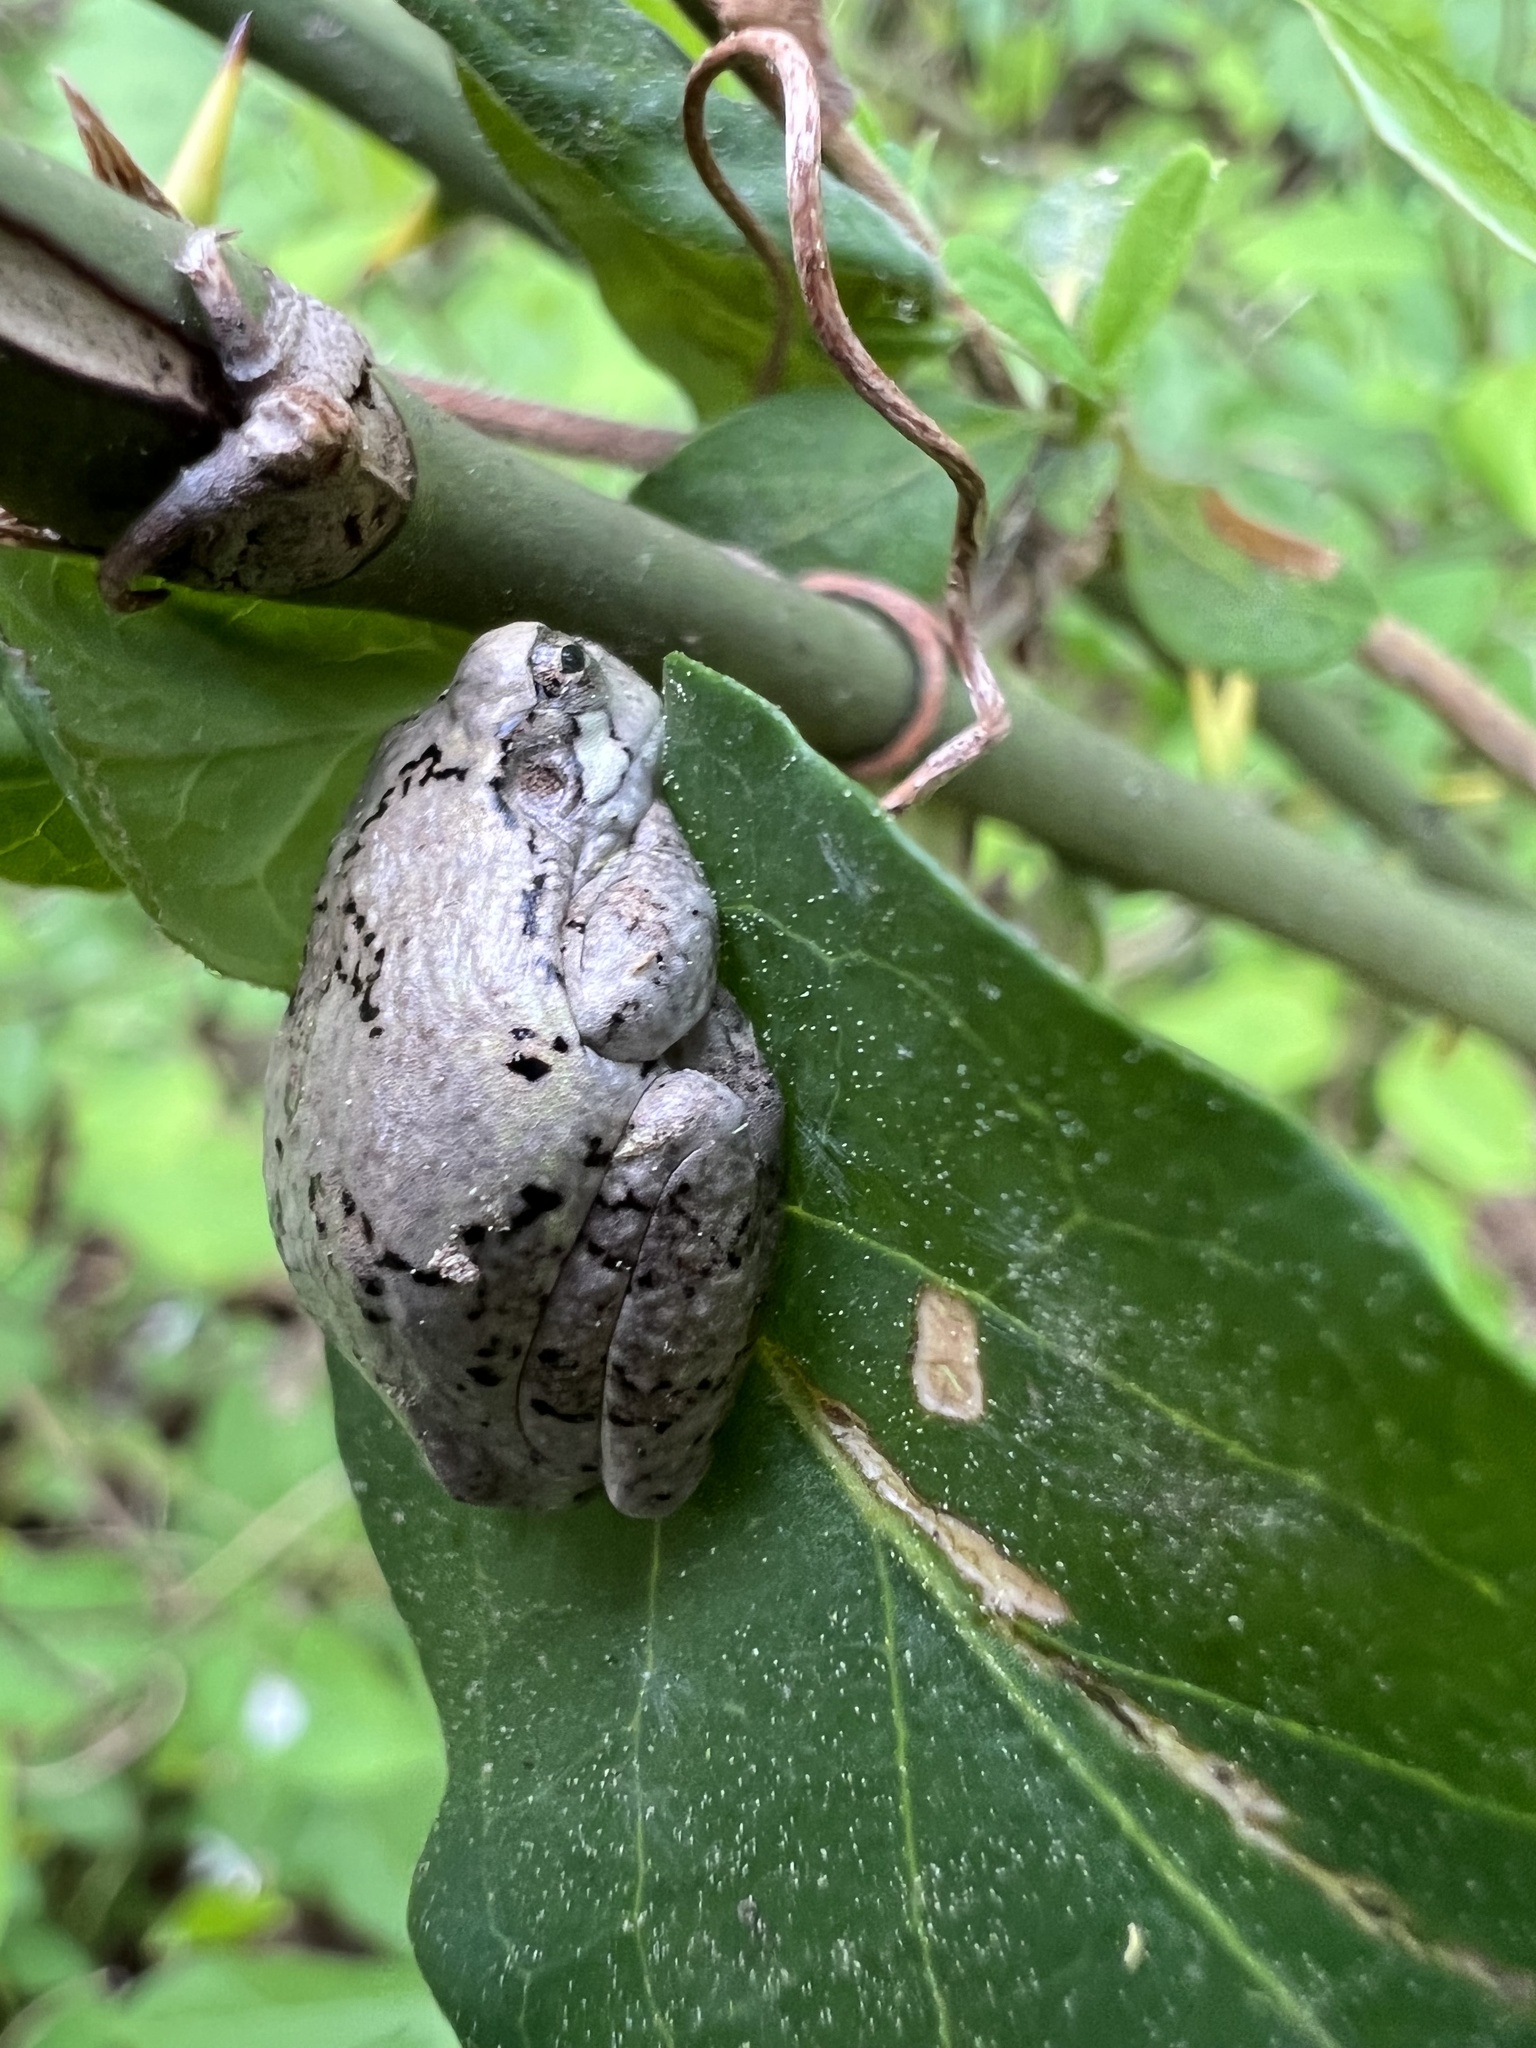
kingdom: Animalia
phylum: Chordata
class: Amphibia
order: Anura
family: Hylidae
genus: Hyla
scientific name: Hyla
